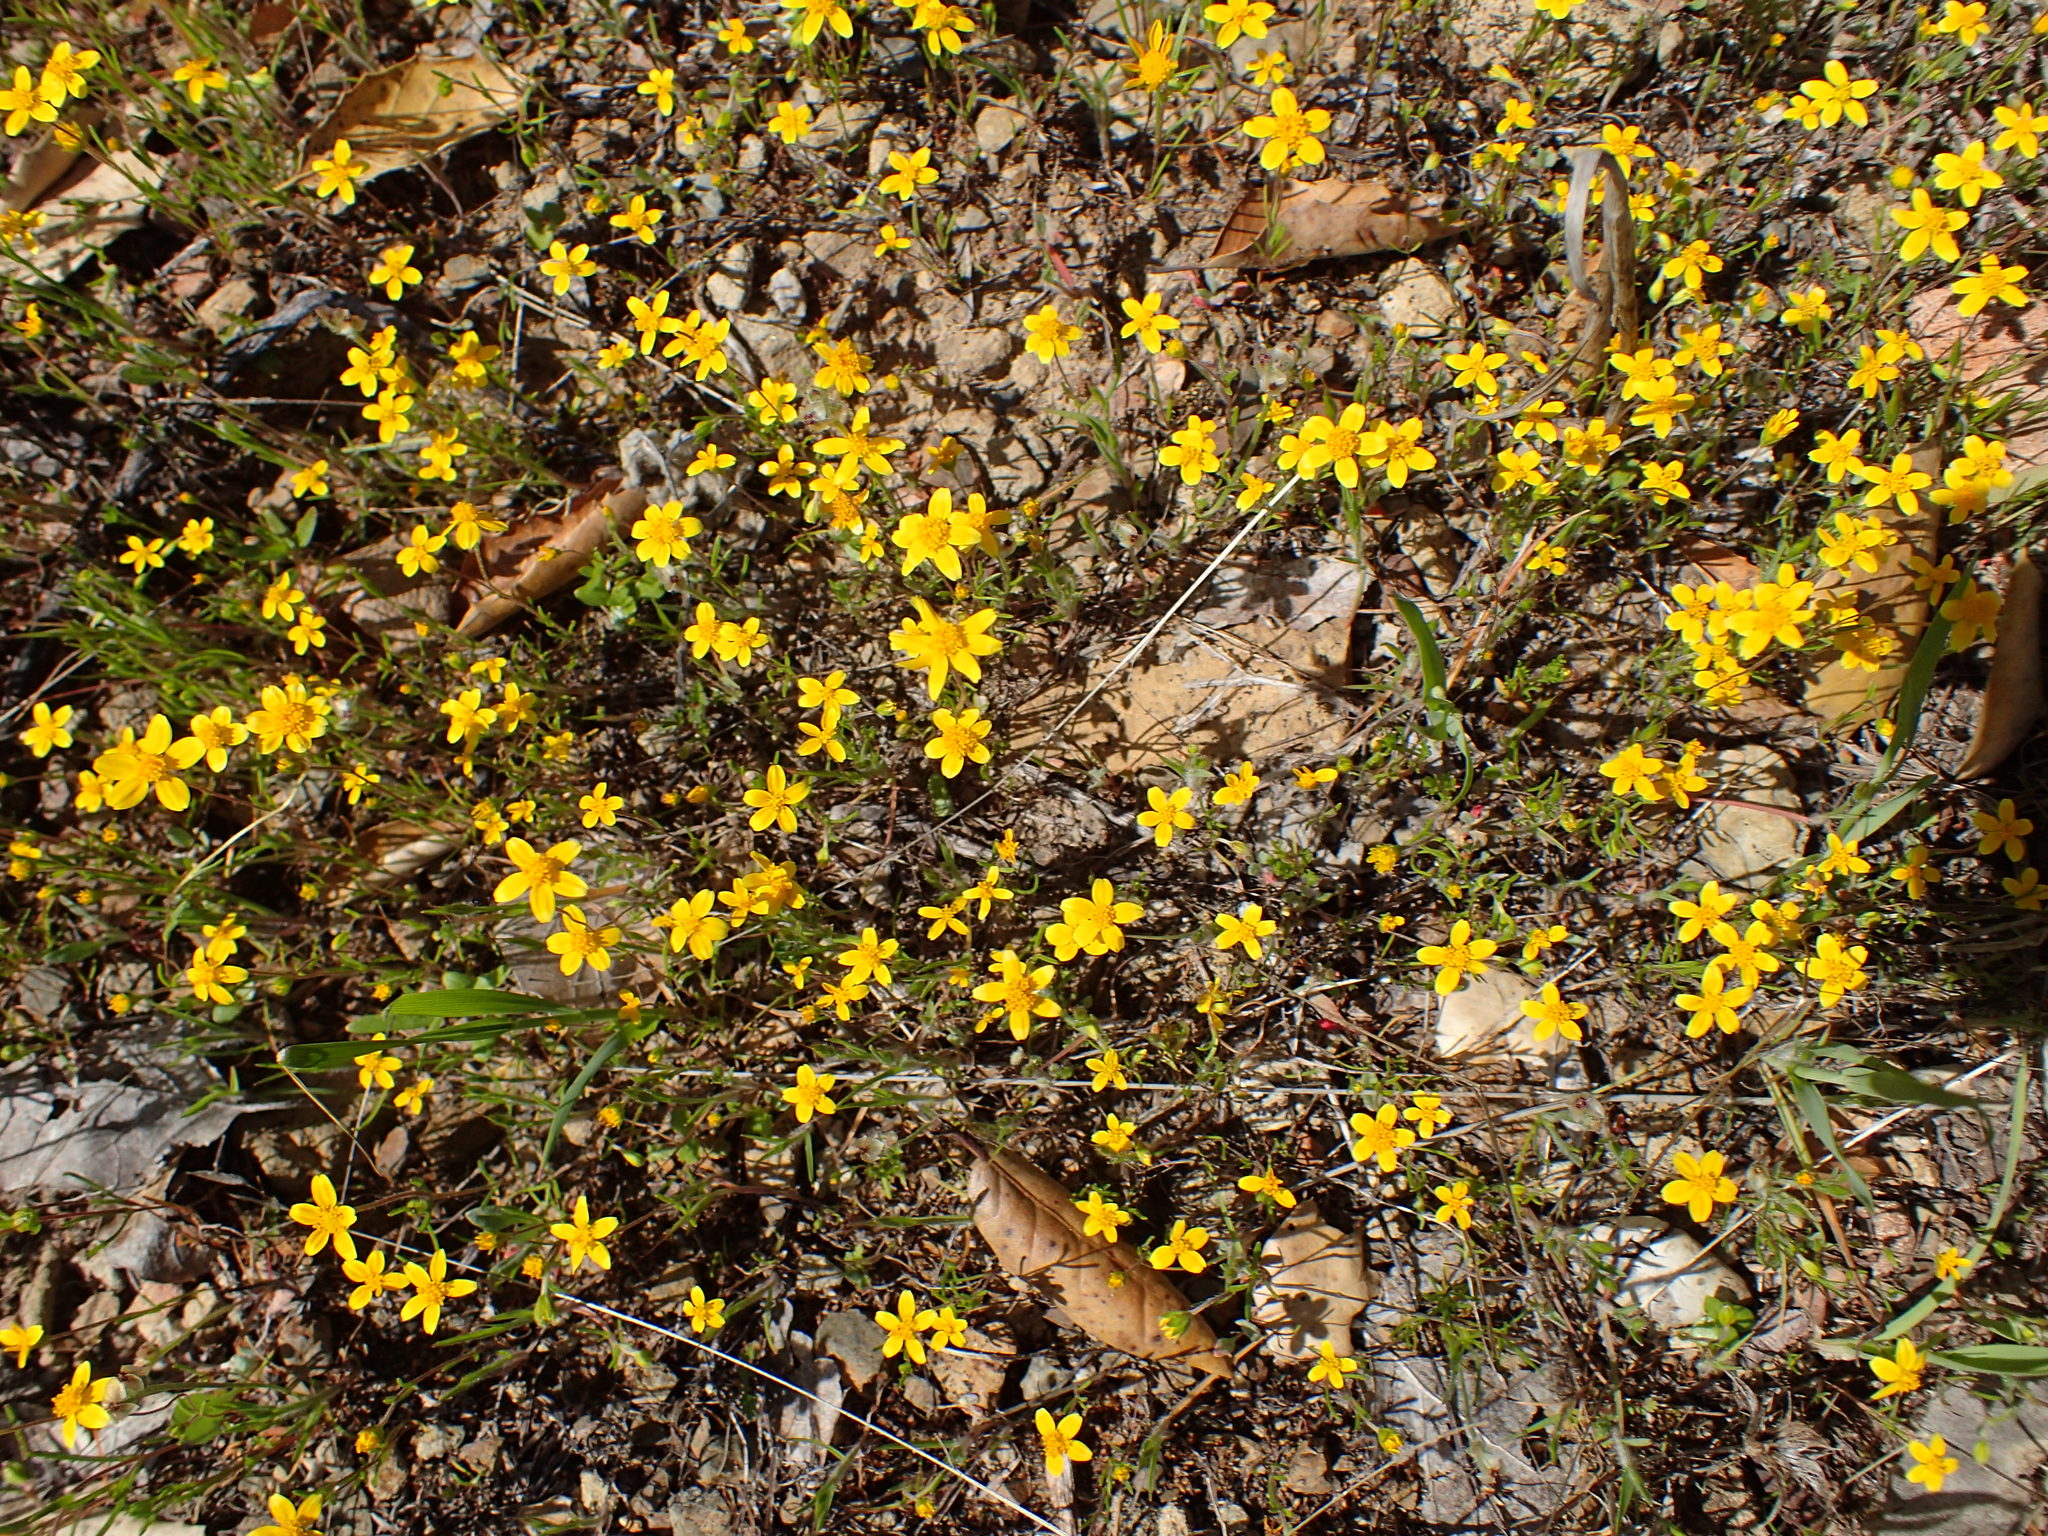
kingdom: Plantae
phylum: Tracheophyta
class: Magnoliopsida
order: Asterales
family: Asteraceae
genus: Lasthenia
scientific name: Lasthenia gracilis
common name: Common goldfields
